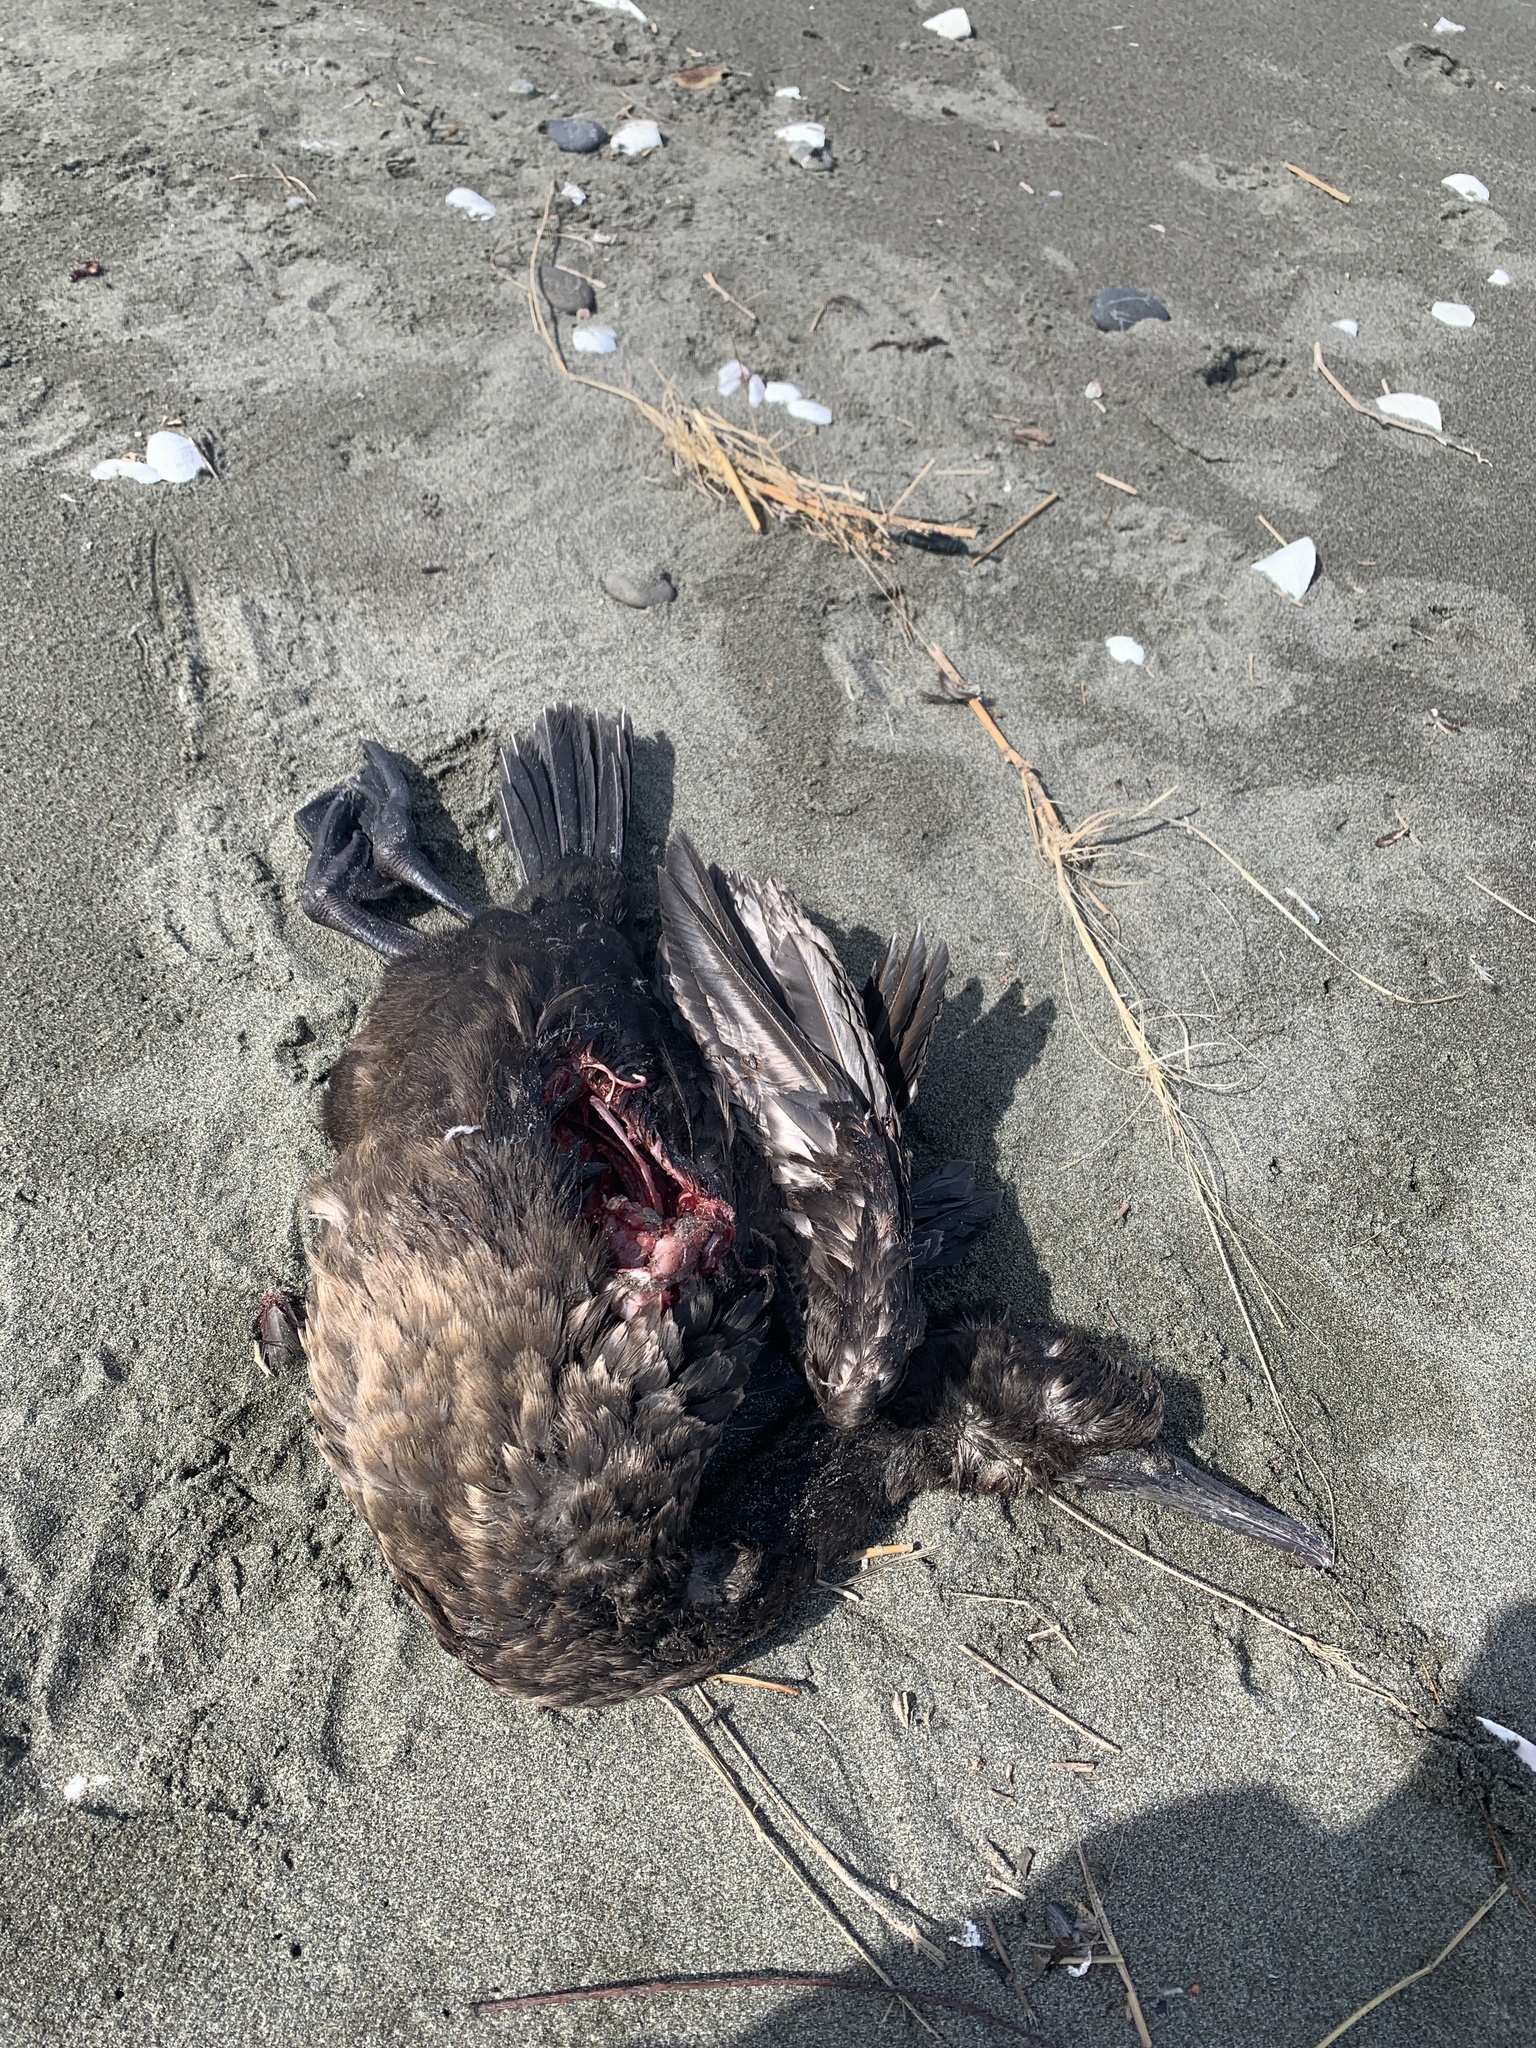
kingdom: Animalia
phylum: Chordata
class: Aves
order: Suliformes
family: Phalacrocoracidae
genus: Urile
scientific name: Urile penicillatus
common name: Brandt's cormorant
